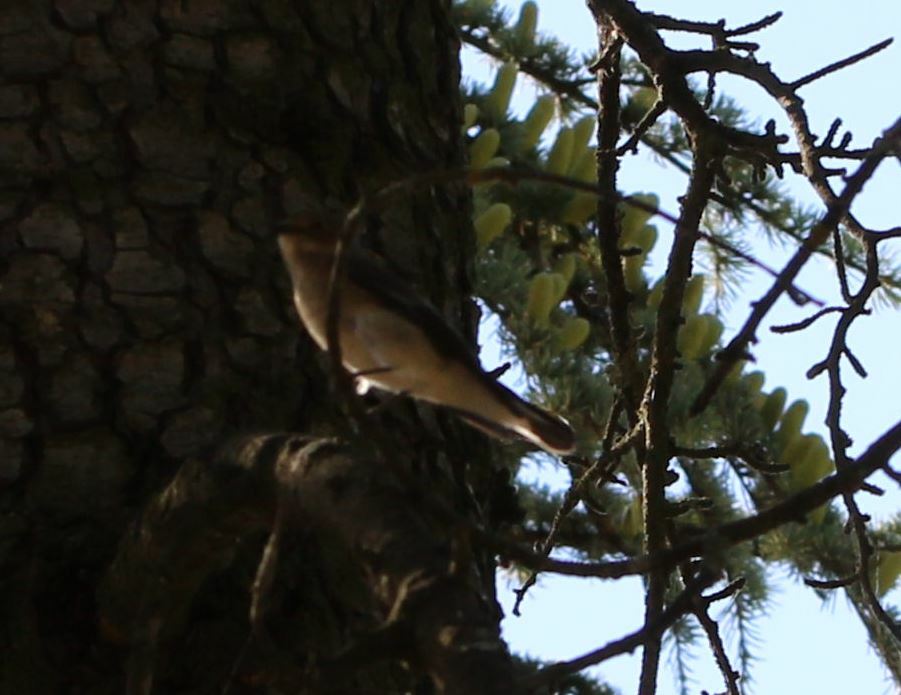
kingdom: Animalia
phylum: Chordata
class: Aves
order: Passeriformes
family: Muscicapidae
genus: Ficedula
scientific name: Ficedula hypoleuca
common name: European pied flycatcher
